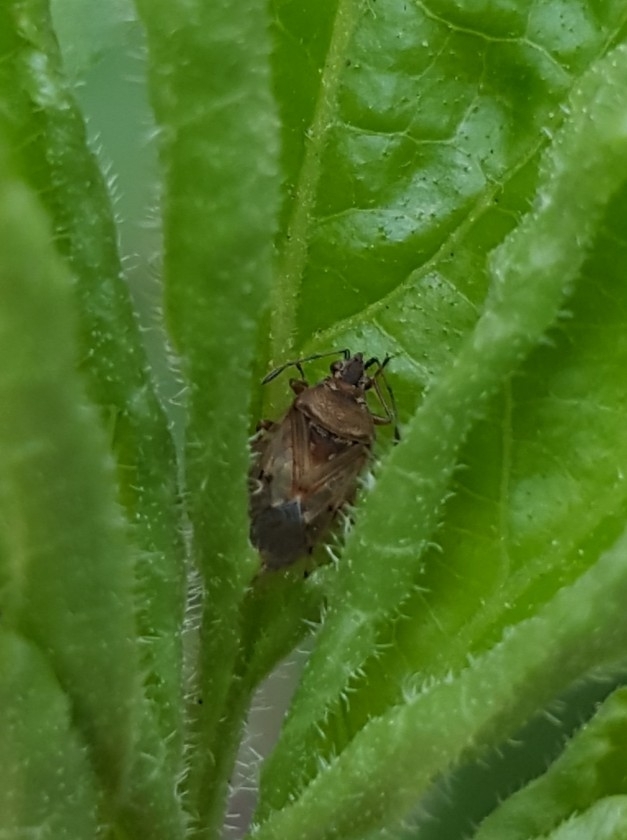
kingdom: Animalia
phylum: Arthropoda
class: Insecta
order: Hemiptera
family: Lygaeidae
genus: Kleidocerys
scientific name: Kleidocerys resedae
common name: Birch catkin bug
